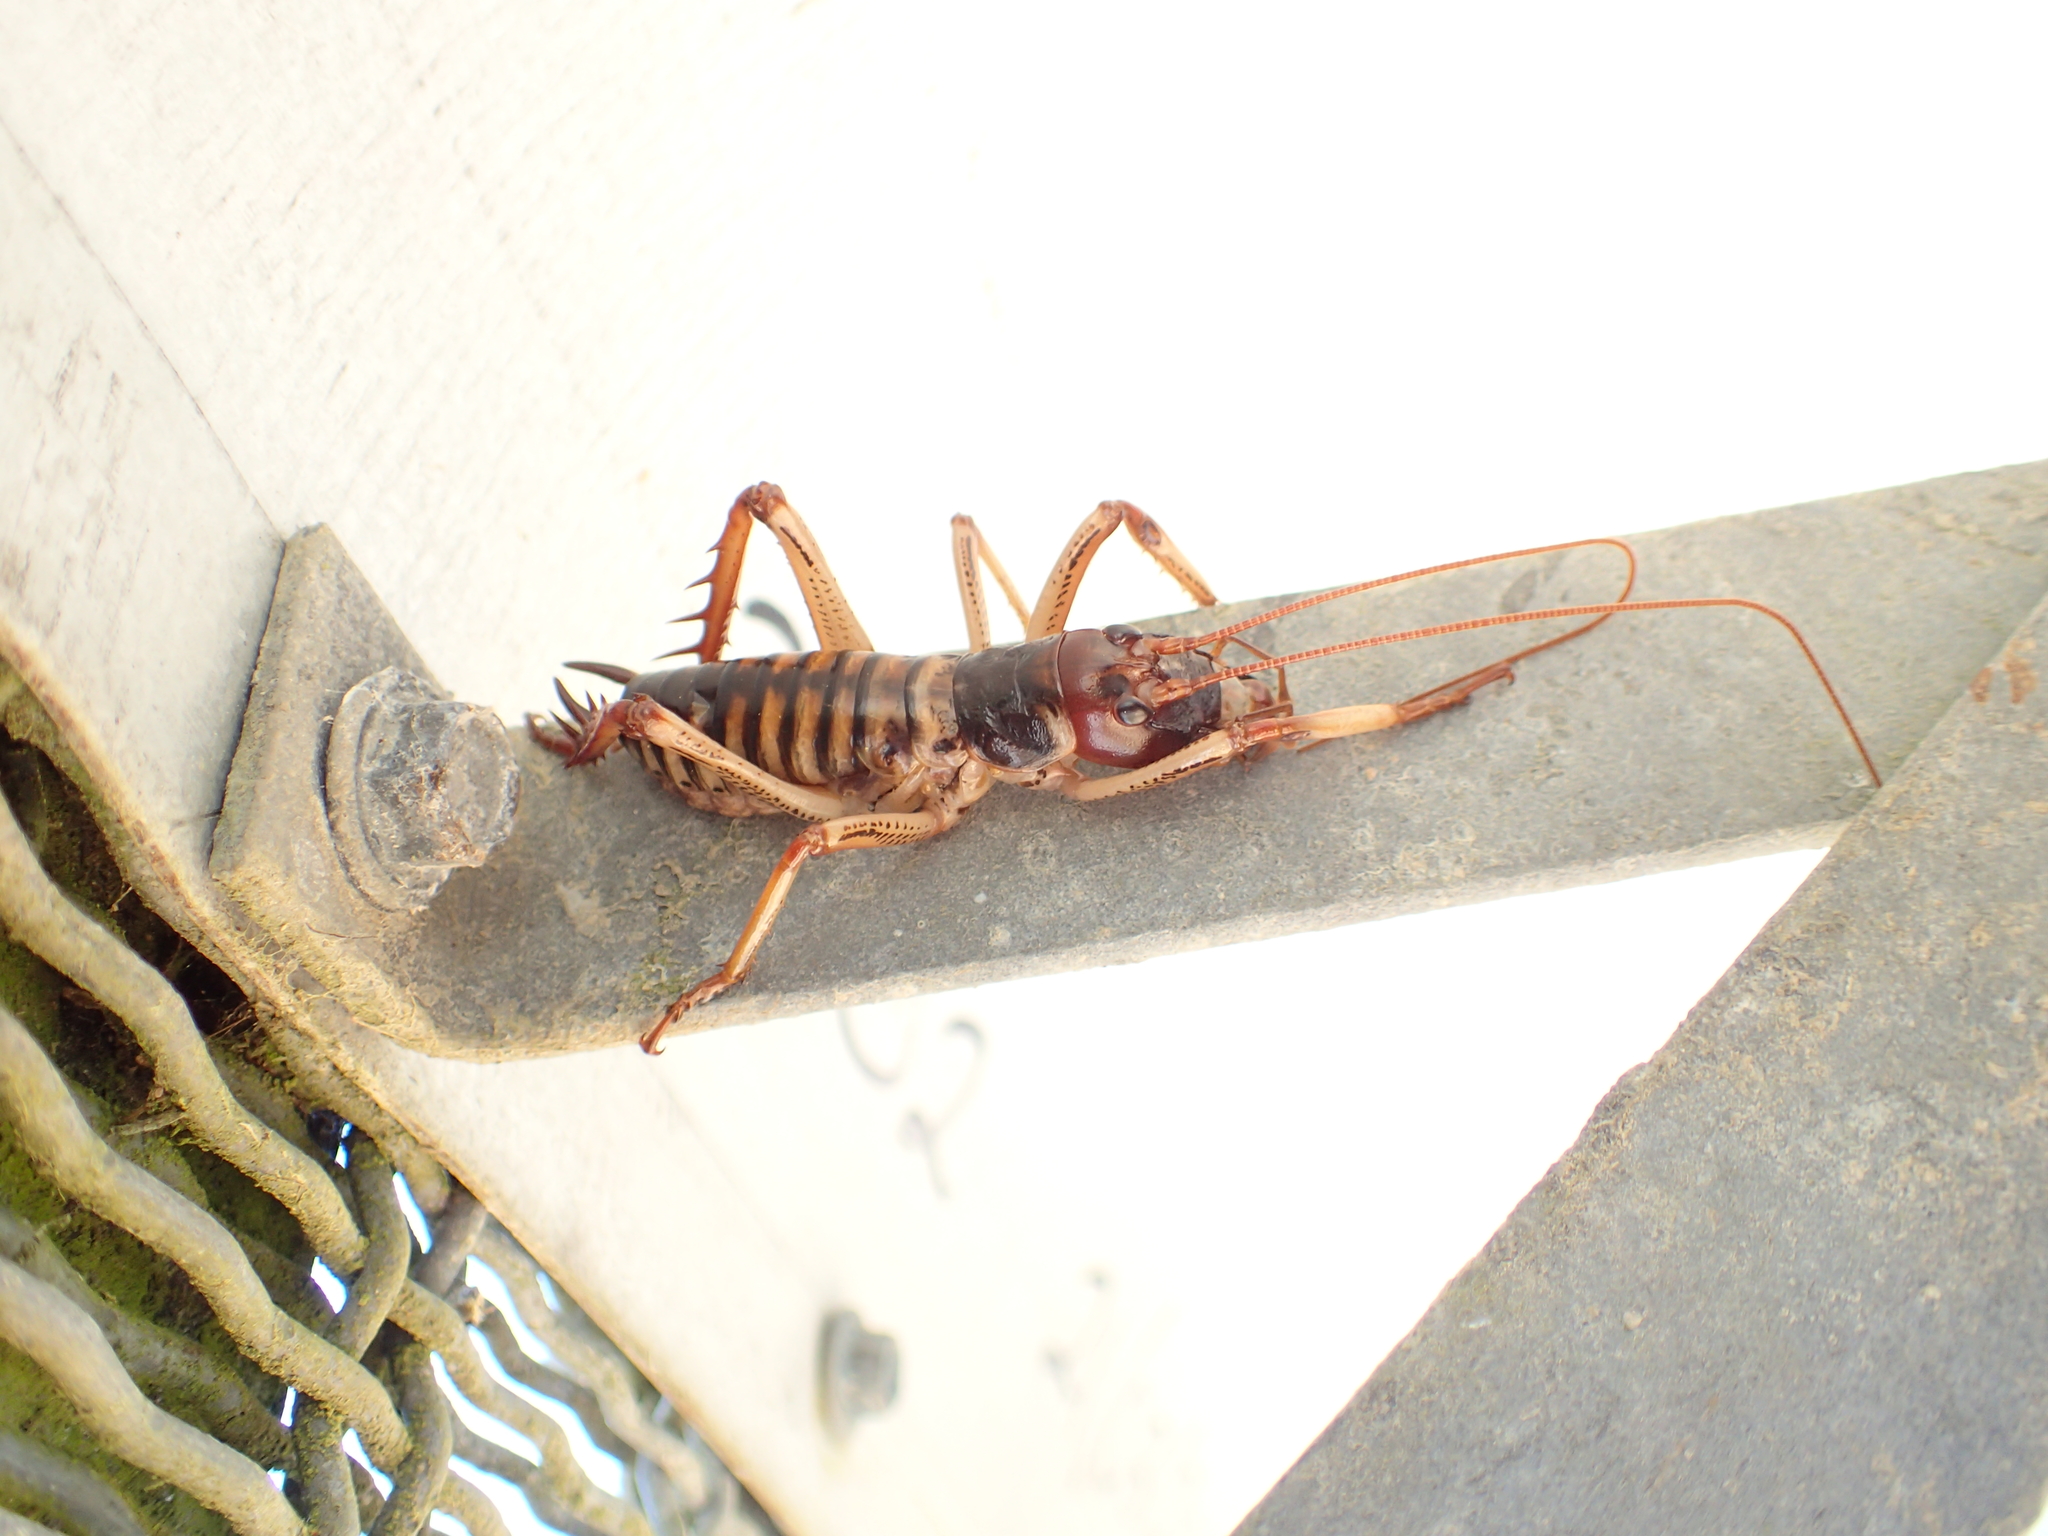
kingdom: Animalia
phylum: Arthropoda
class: Insecta
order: Orthoptera
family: Anostostomatidae
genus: Hemideina
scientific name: Hemideina crassidens
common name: Wellington tree weta
